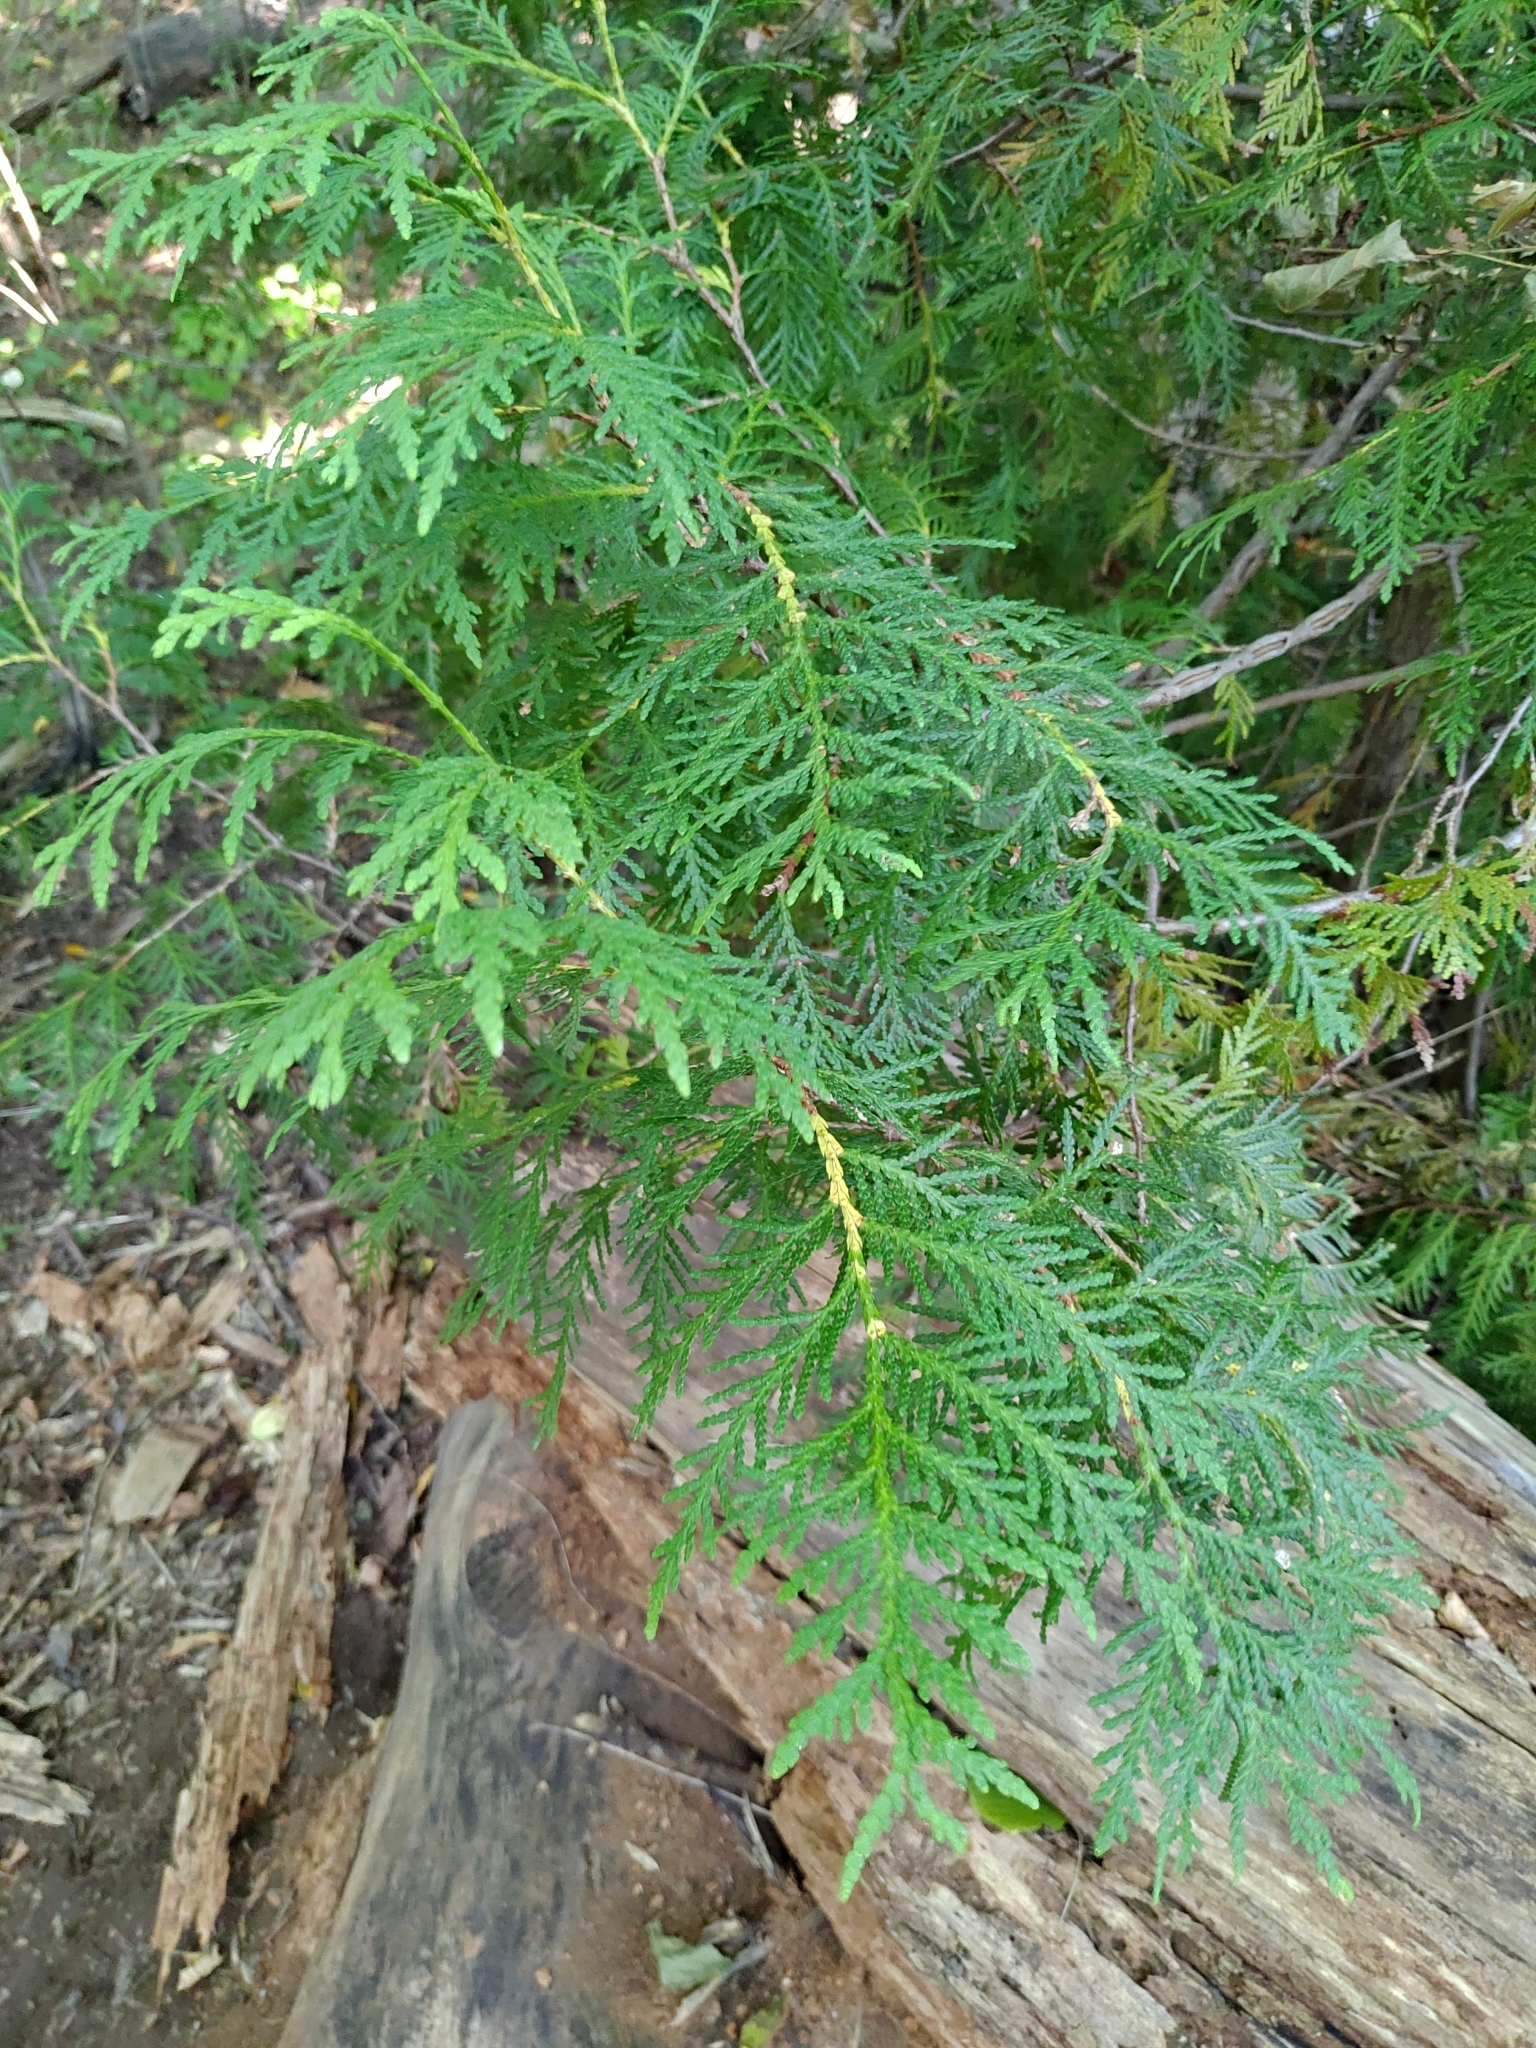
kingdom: Plantae
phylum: Tracheophyta
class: Pinopsida
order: Pinales
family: Cupressaceae
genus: Thuja
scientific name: Thuja occidentalis
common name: Northern white-cedar
